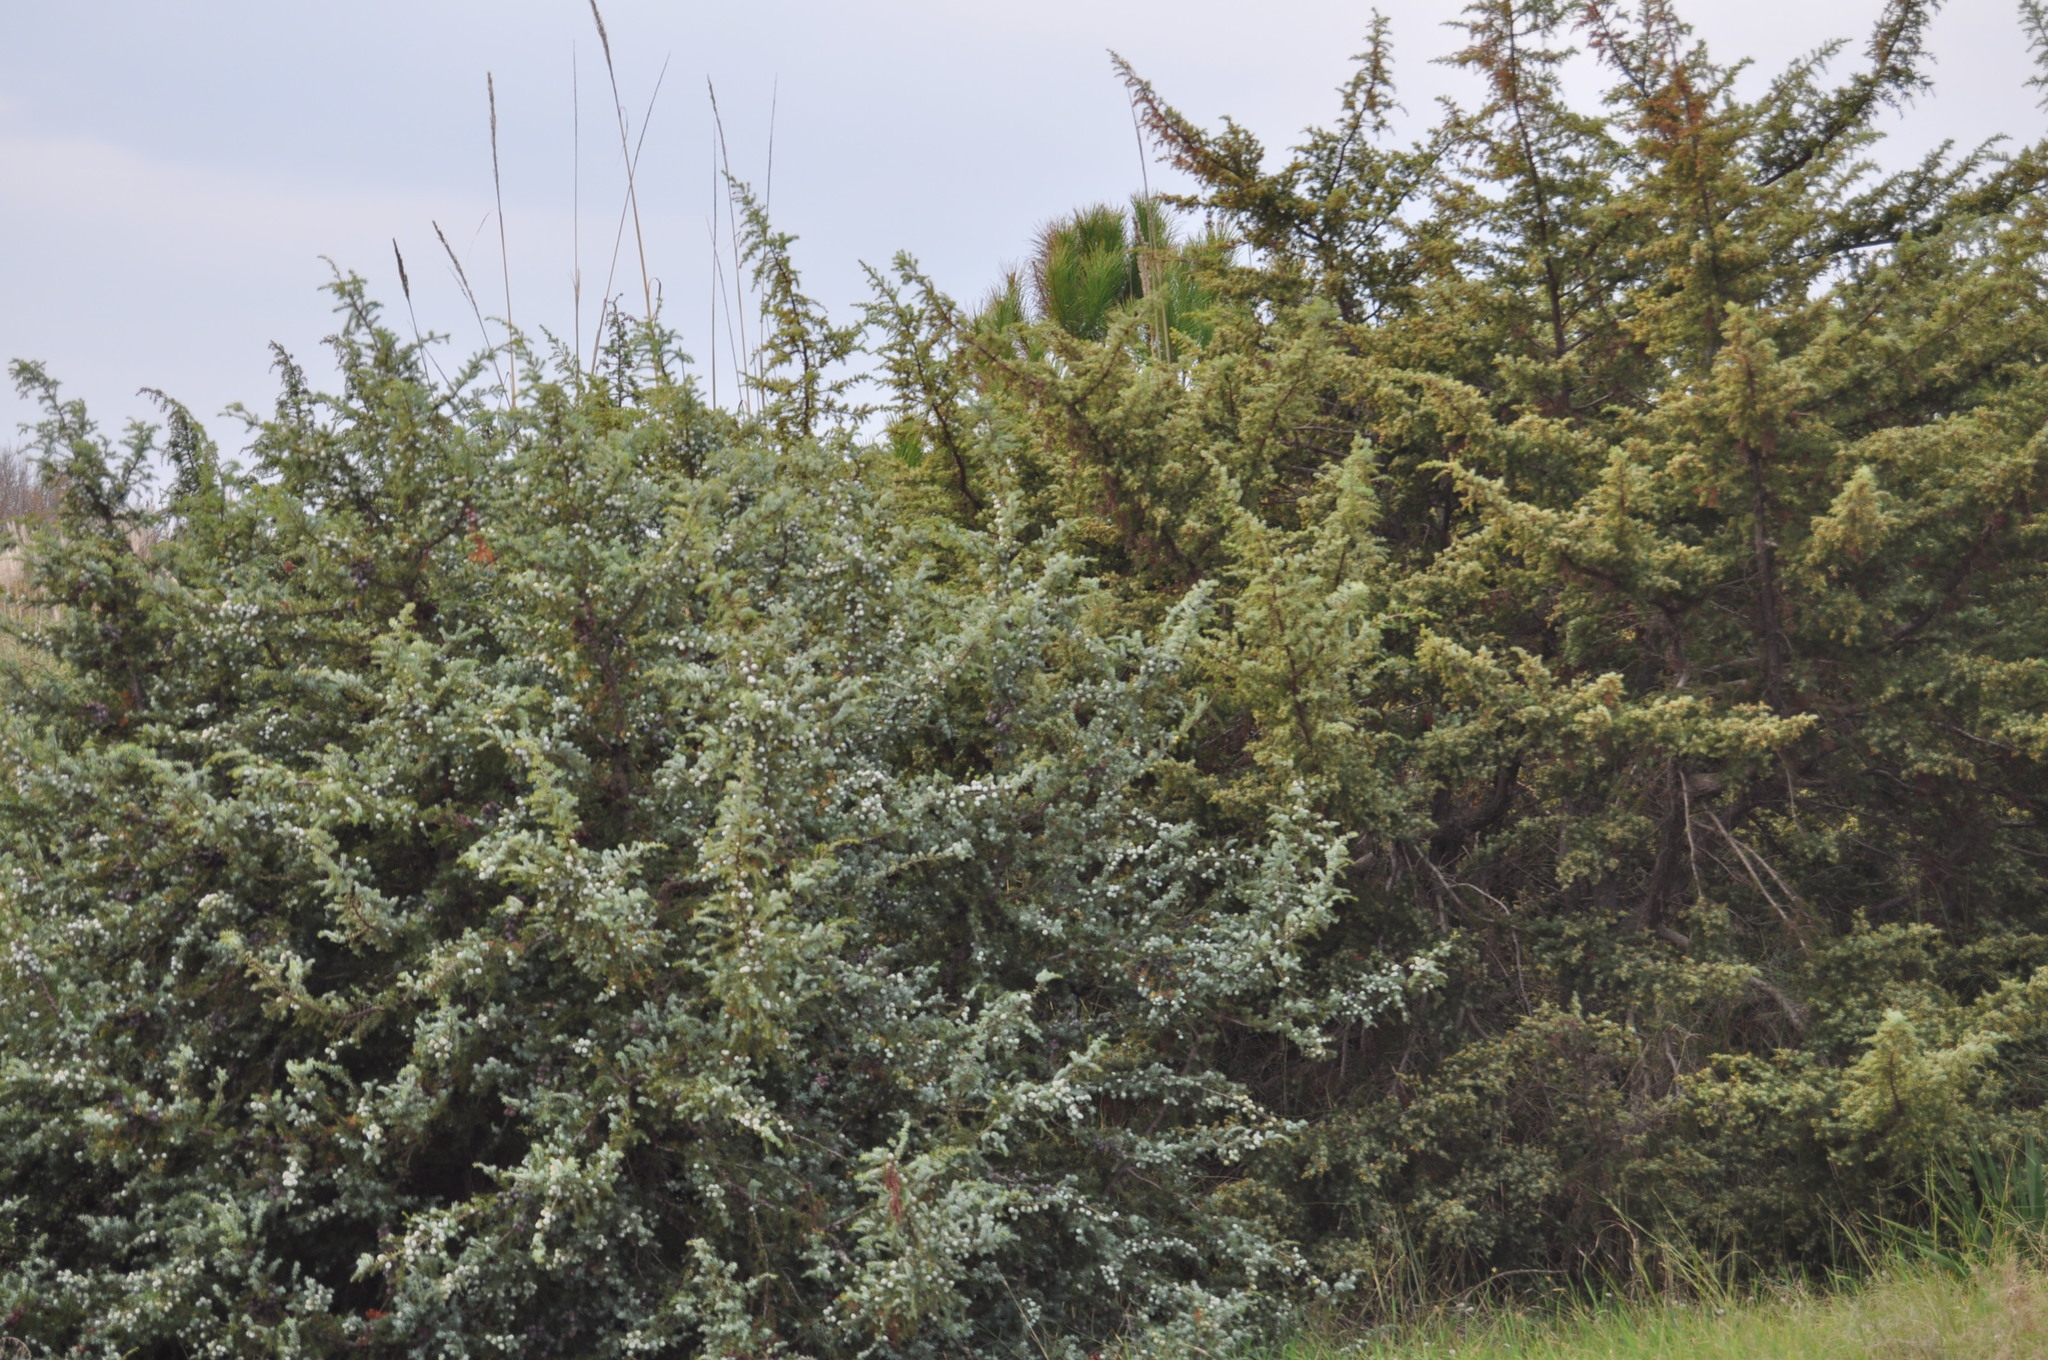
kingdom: Plantae
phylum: Tracheophyta
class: Pinopsida
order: Pinales
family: Cupressaceae
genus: Juniperus
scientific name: Juniperus oxycedrus
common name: Prickly juniper
